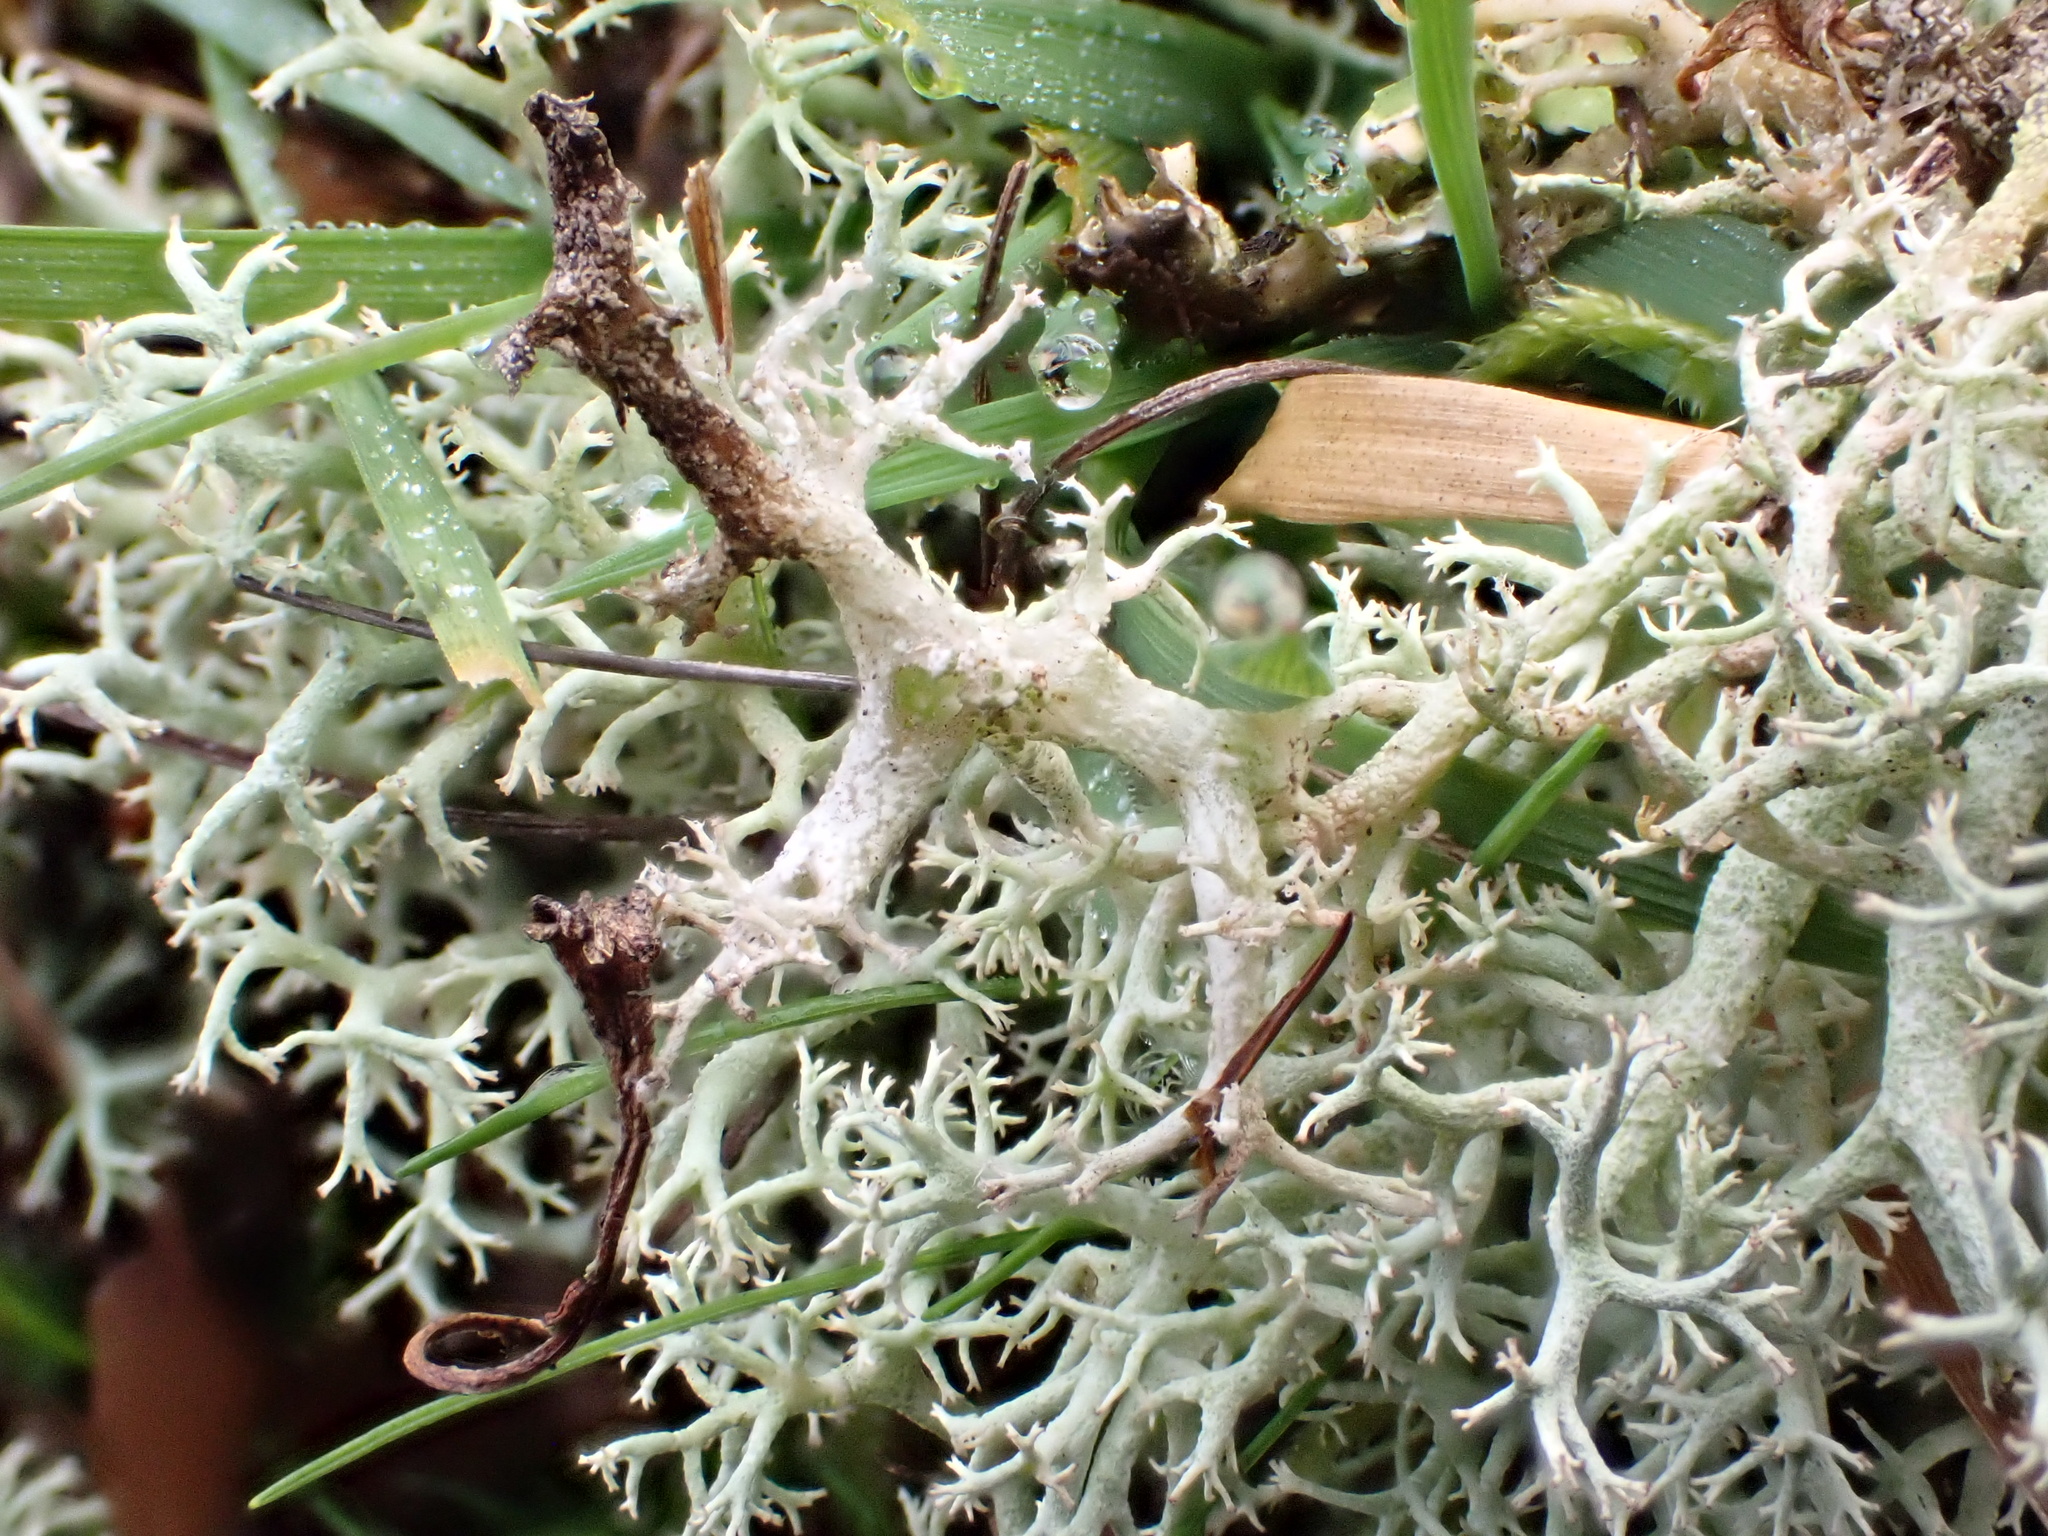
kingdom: Fungi
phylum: Ascomycota
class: Lecanoromycetes
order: Lecanorales
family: Cladoniaceae
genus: Cladonia
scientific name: Cladonia portentosa
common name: Reindeer lichen
